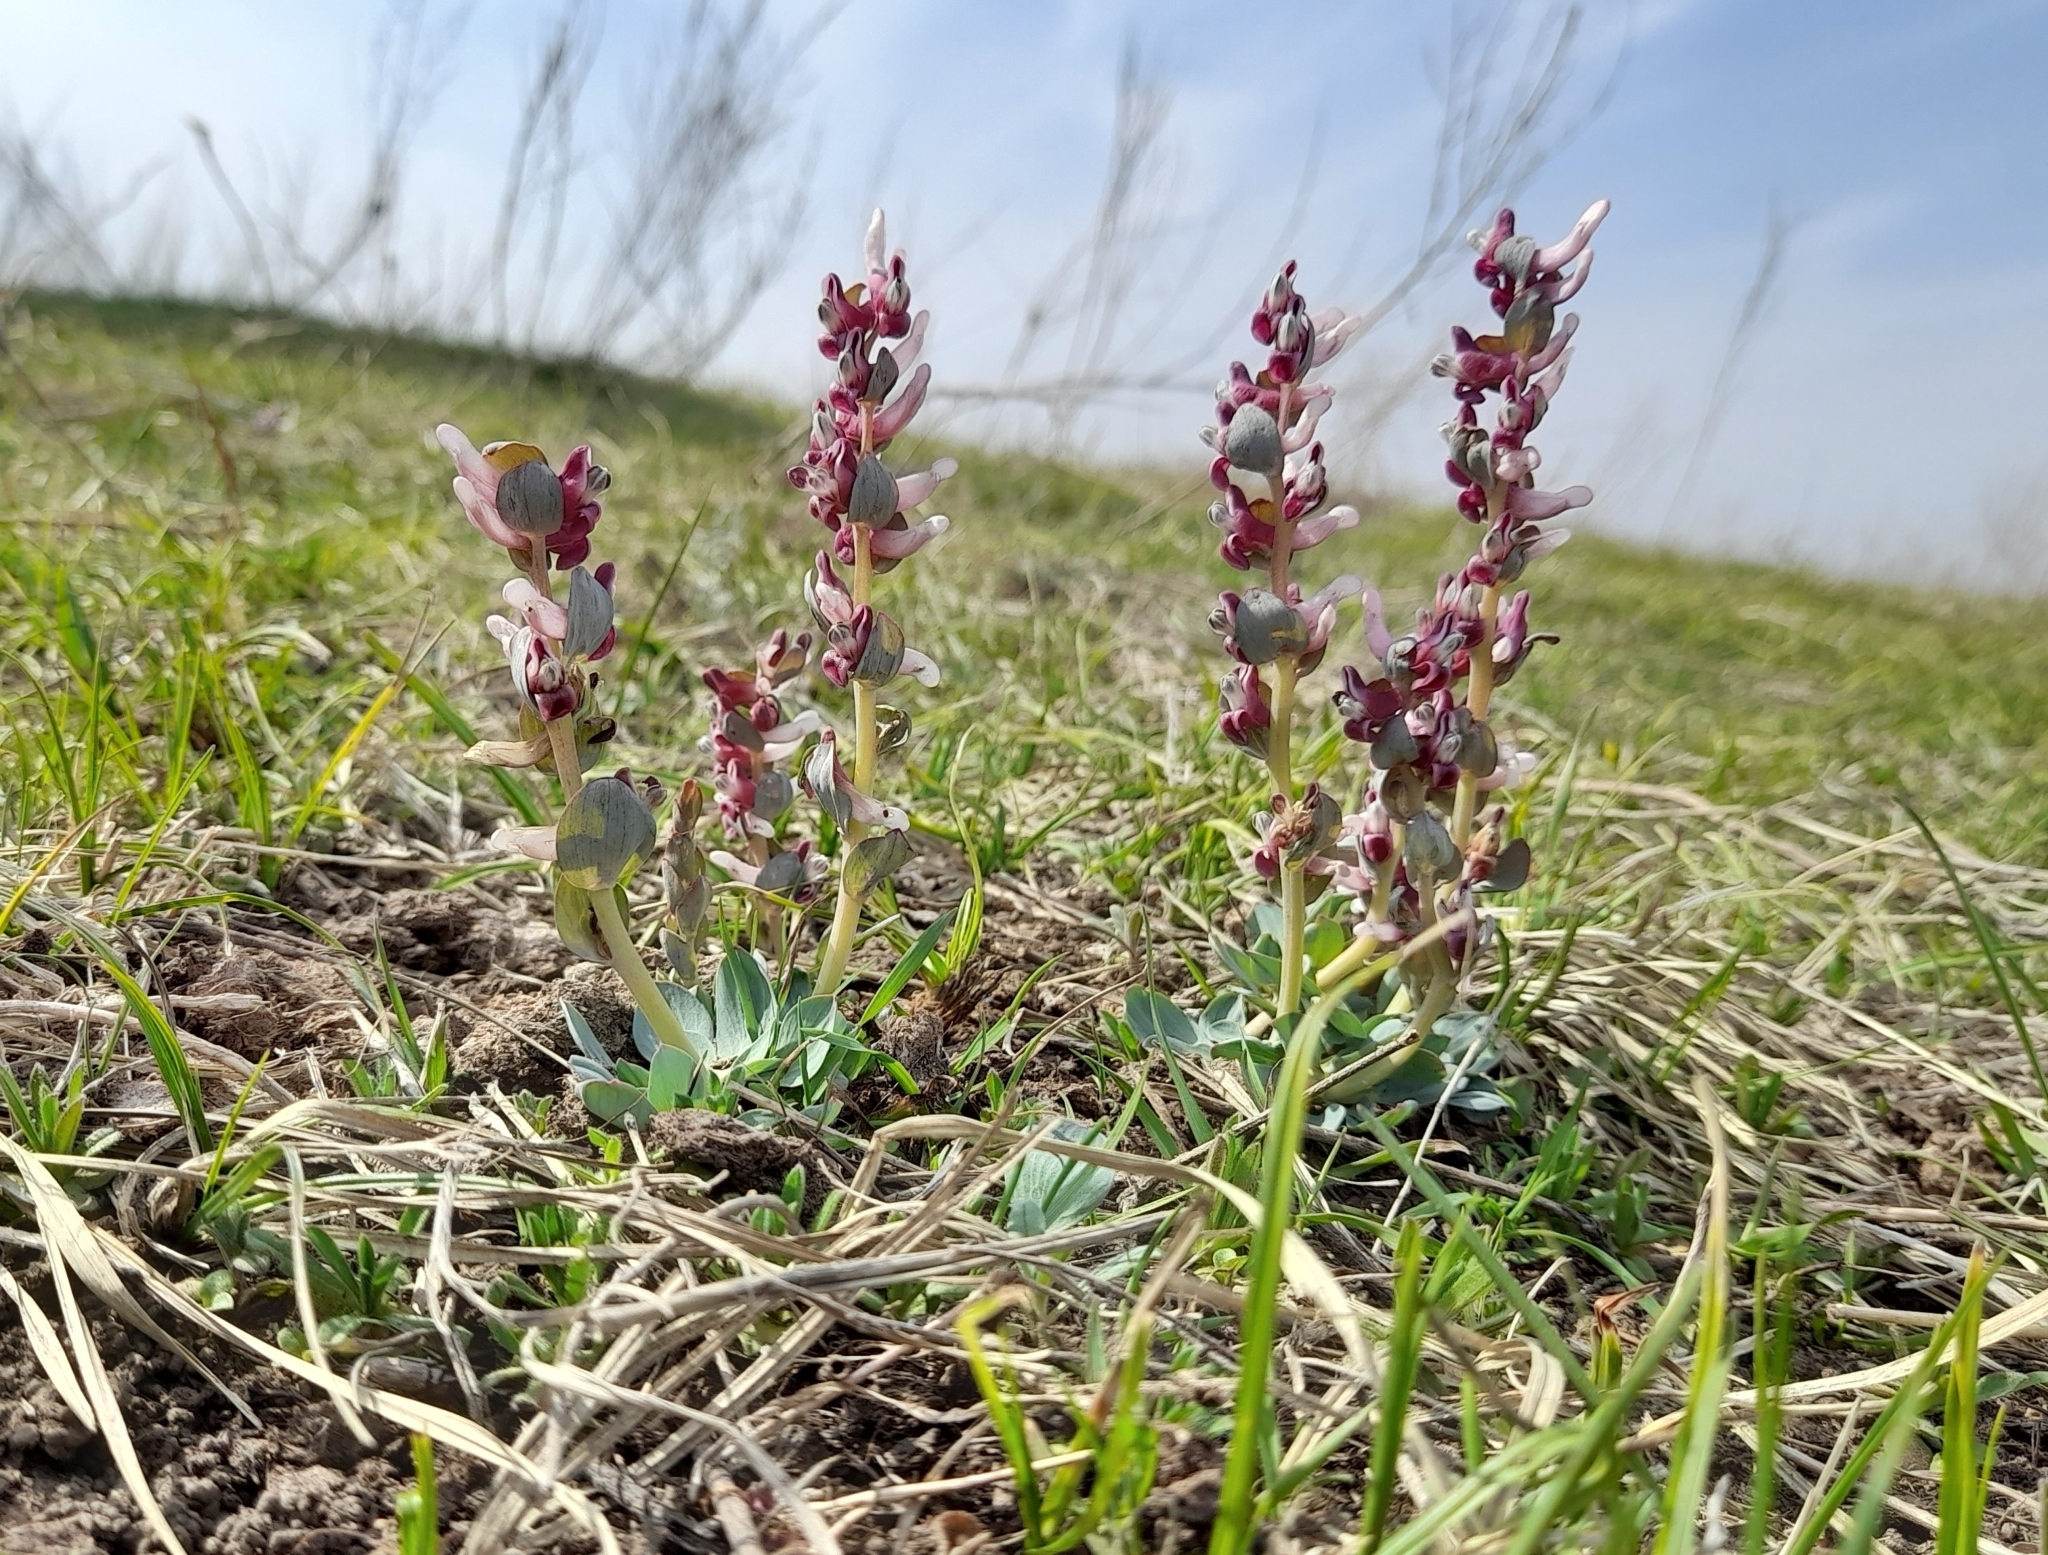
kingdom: Plantae
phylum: Tracheophyta
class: Magnoliopsida
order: Ranunculales
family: Papaveraceae
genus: Corydalis
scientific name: Corydalis ledebouriana
